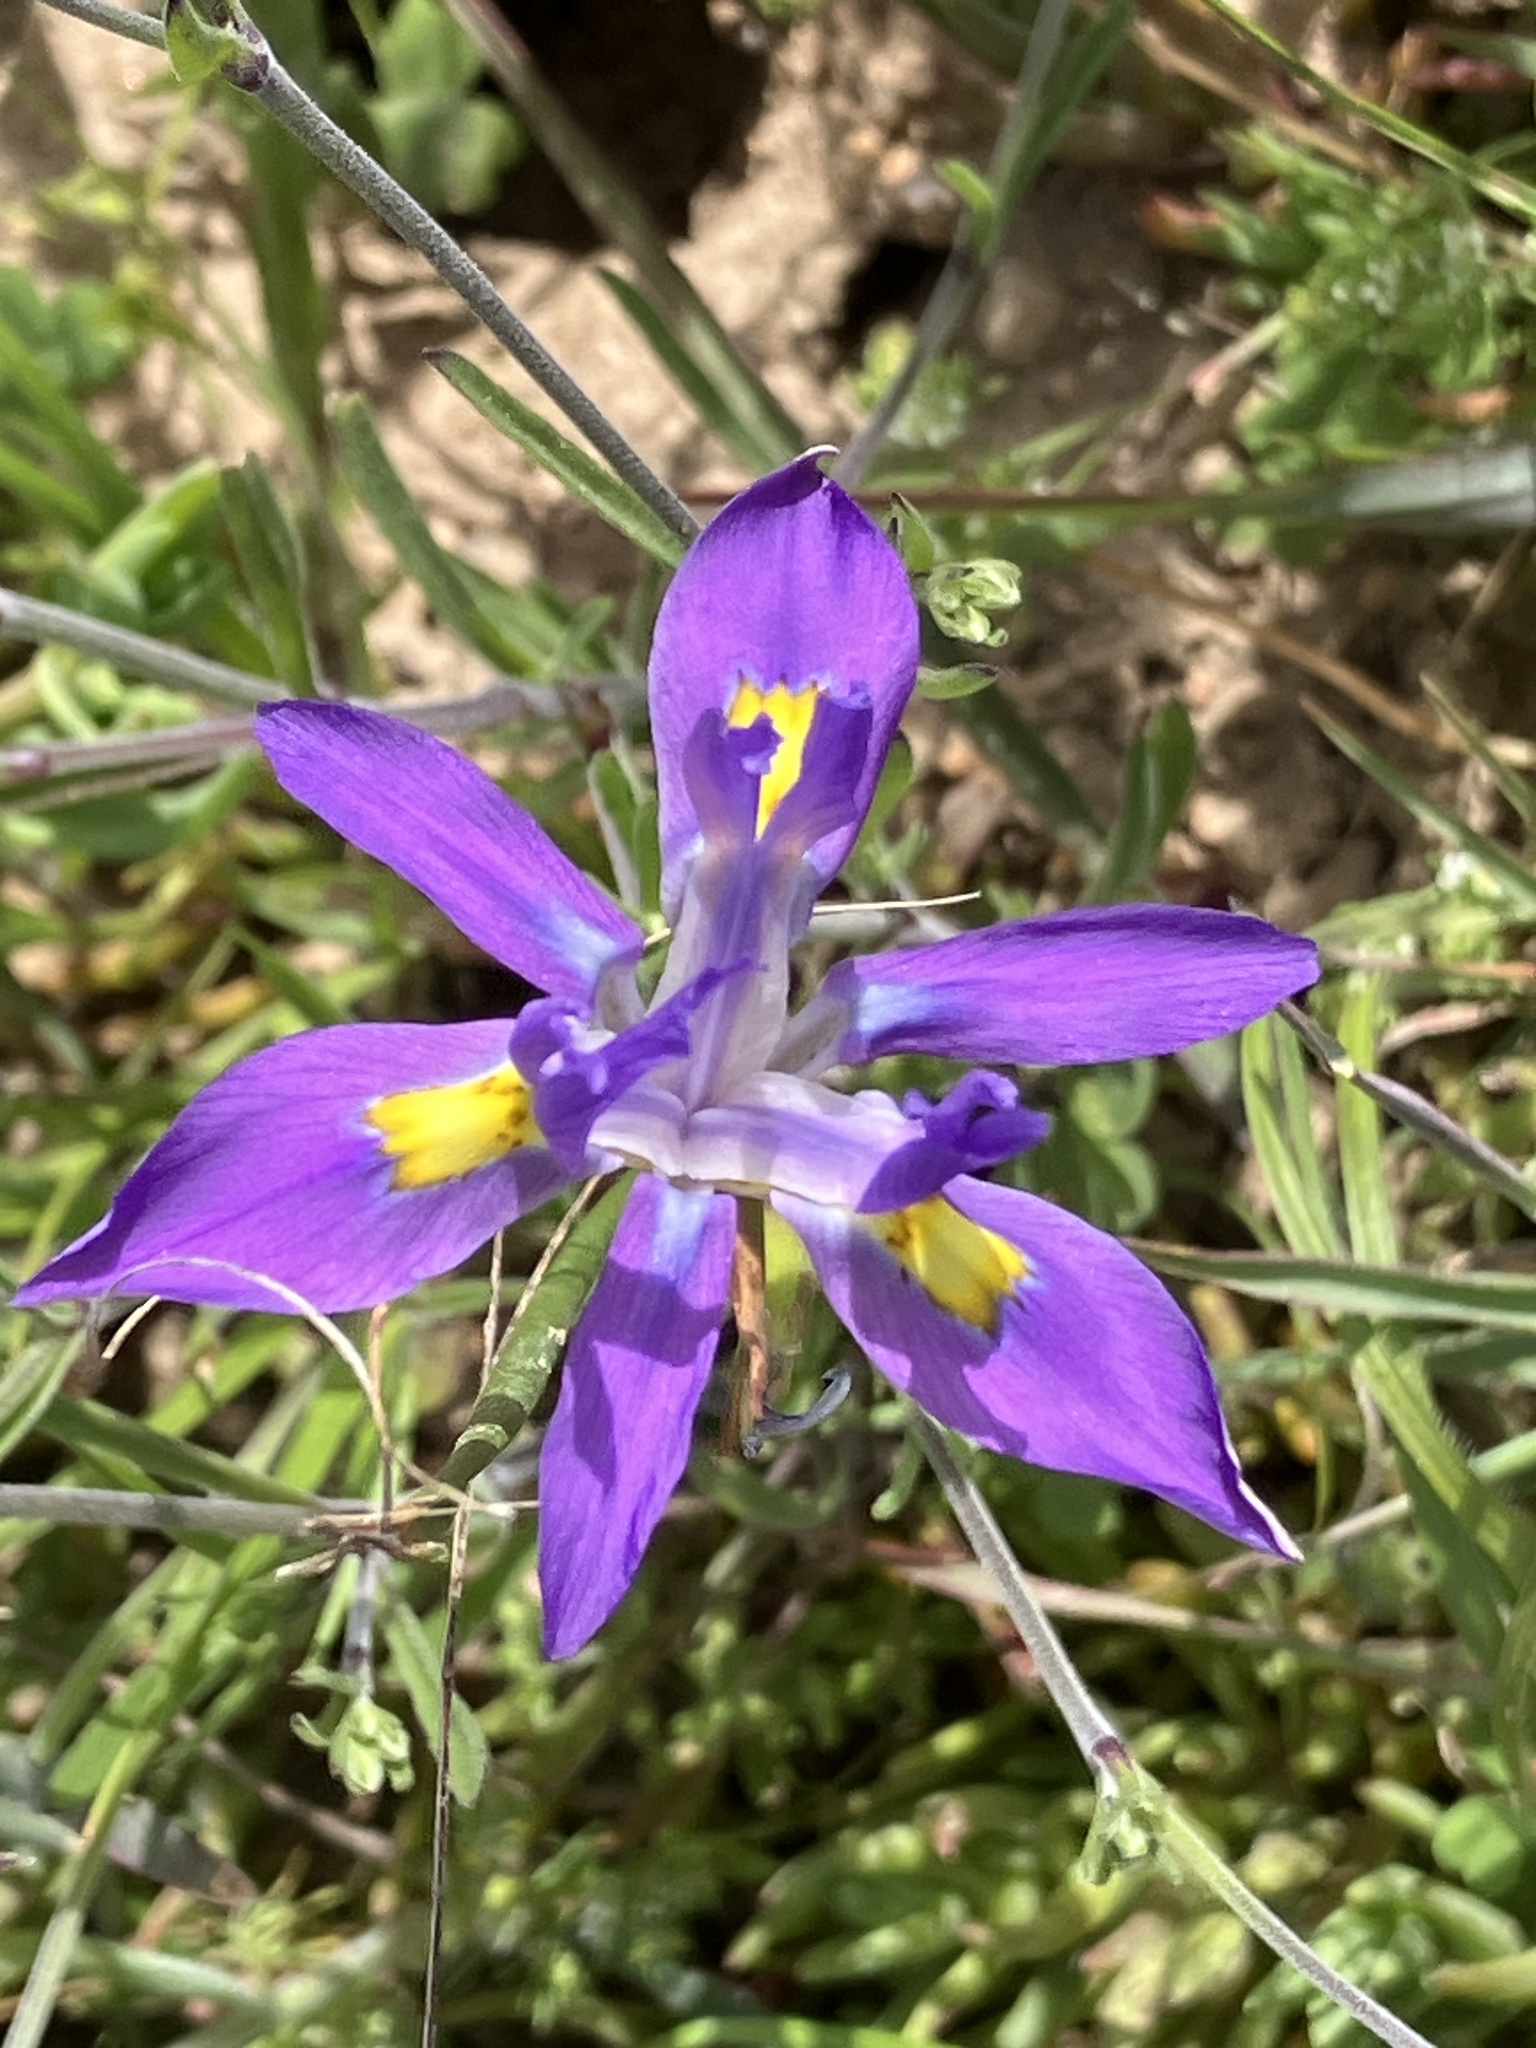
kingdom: Plantae
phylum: Tracheophyta
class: Liliopsida
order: Asparagales
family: Iridaceae
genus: Moraea
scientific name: Moraea fugax
